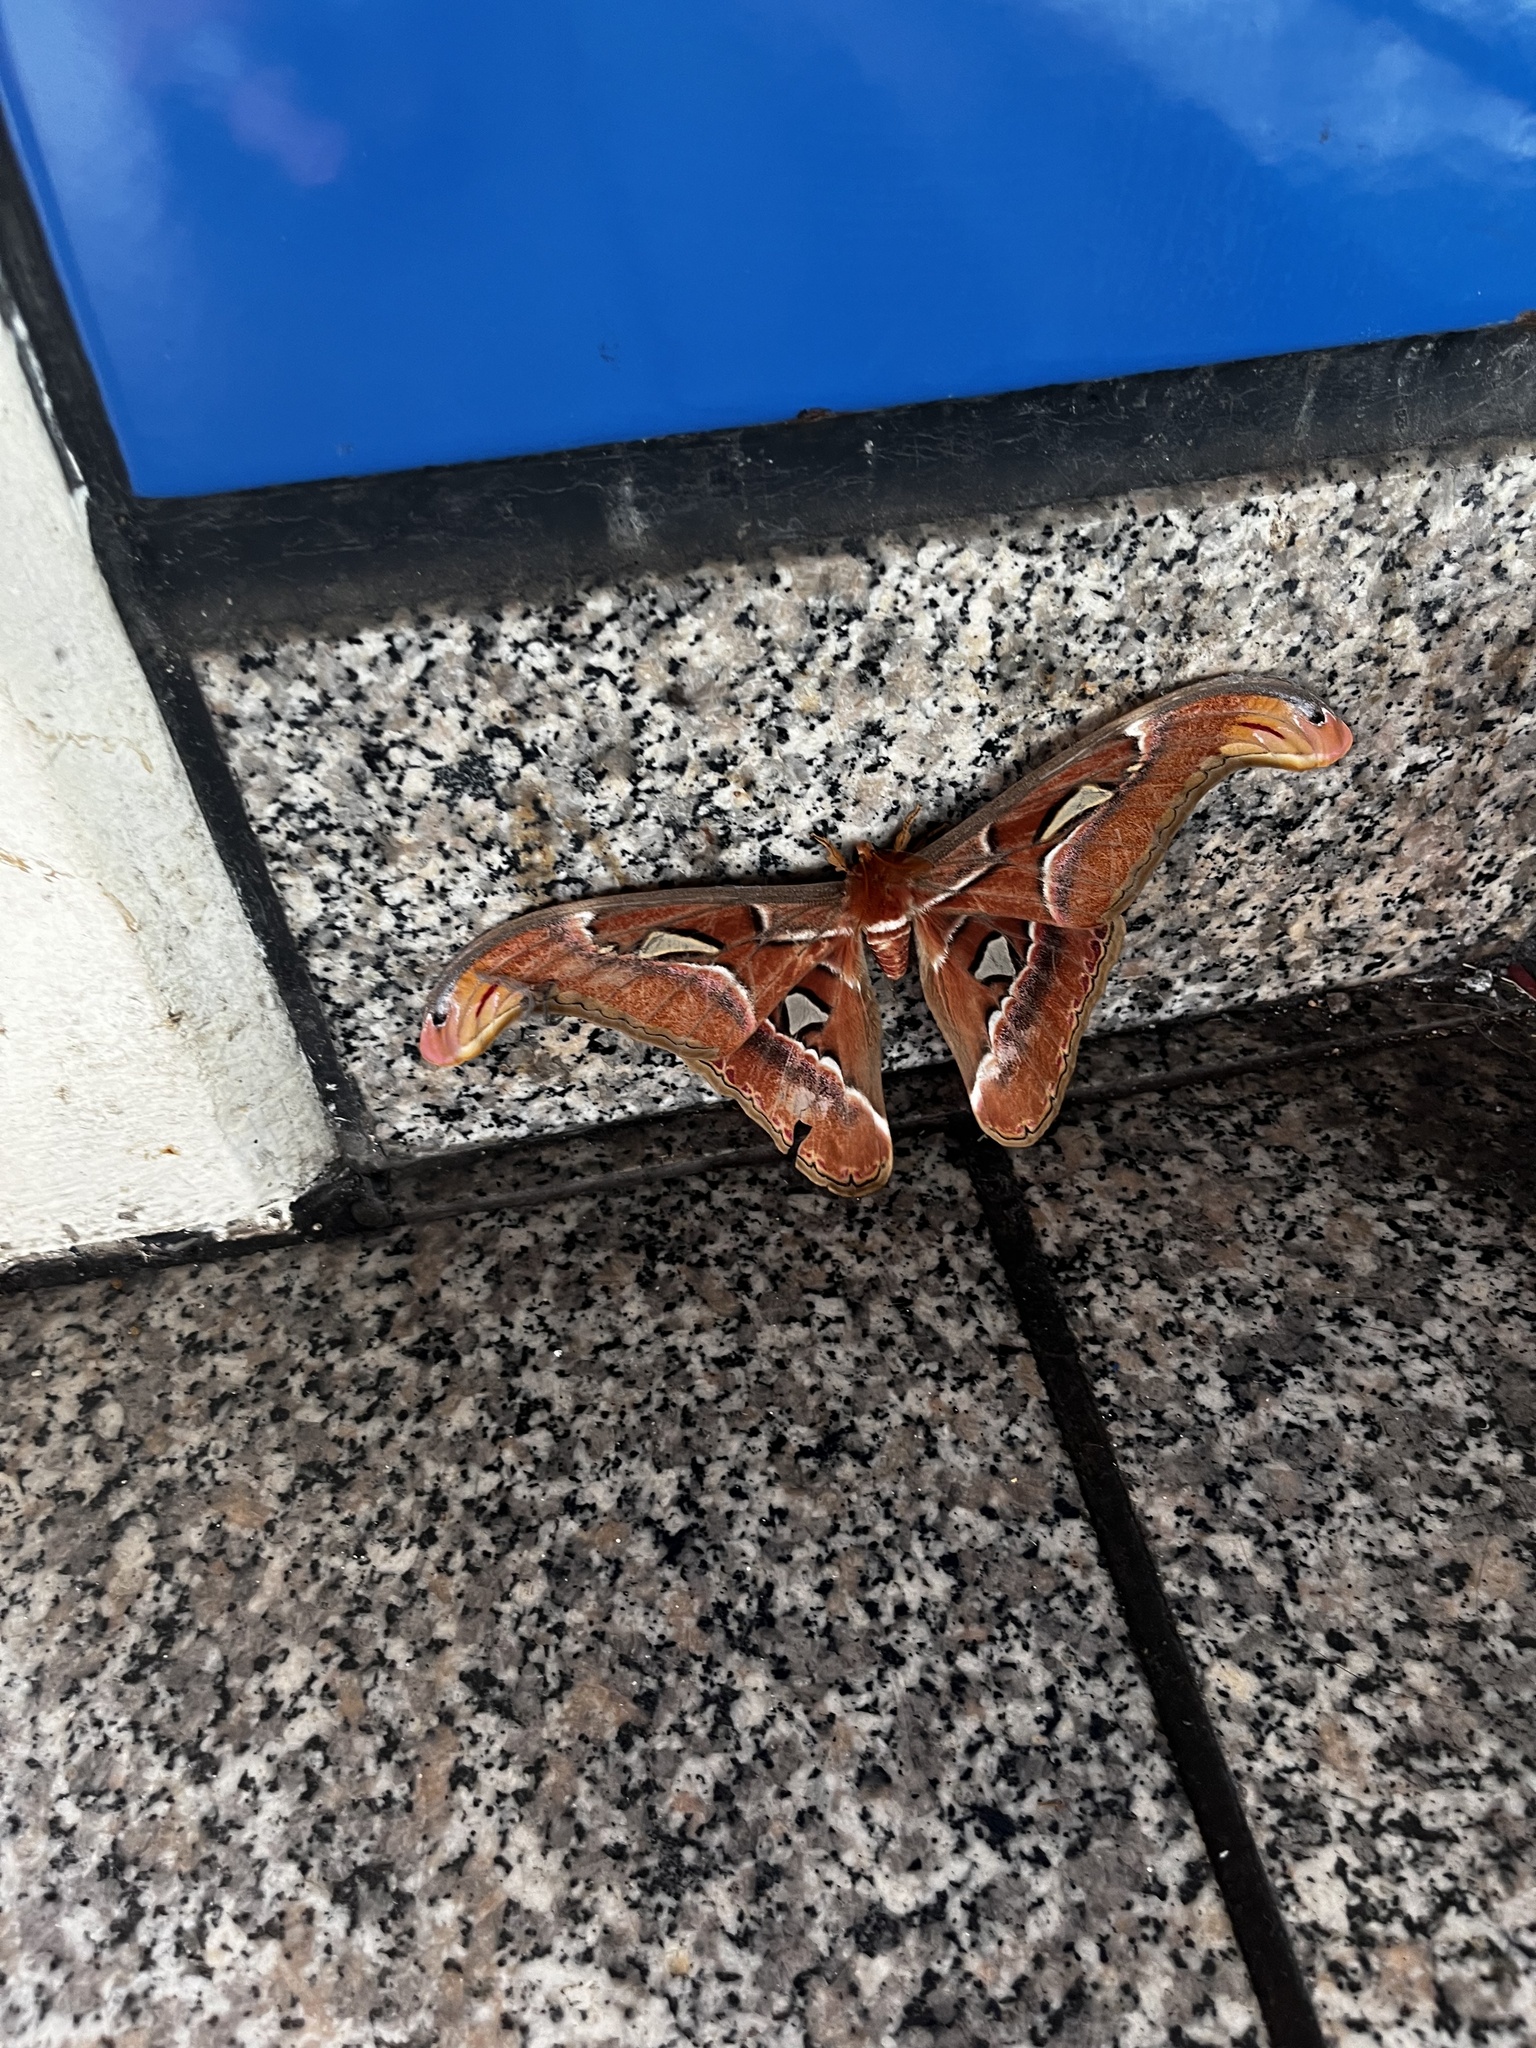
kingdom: Animalia
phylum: Arthropoda
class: Insecta
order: Lepidoptera
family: Saturniidae
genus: Attacus
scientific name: Attacus atlas
